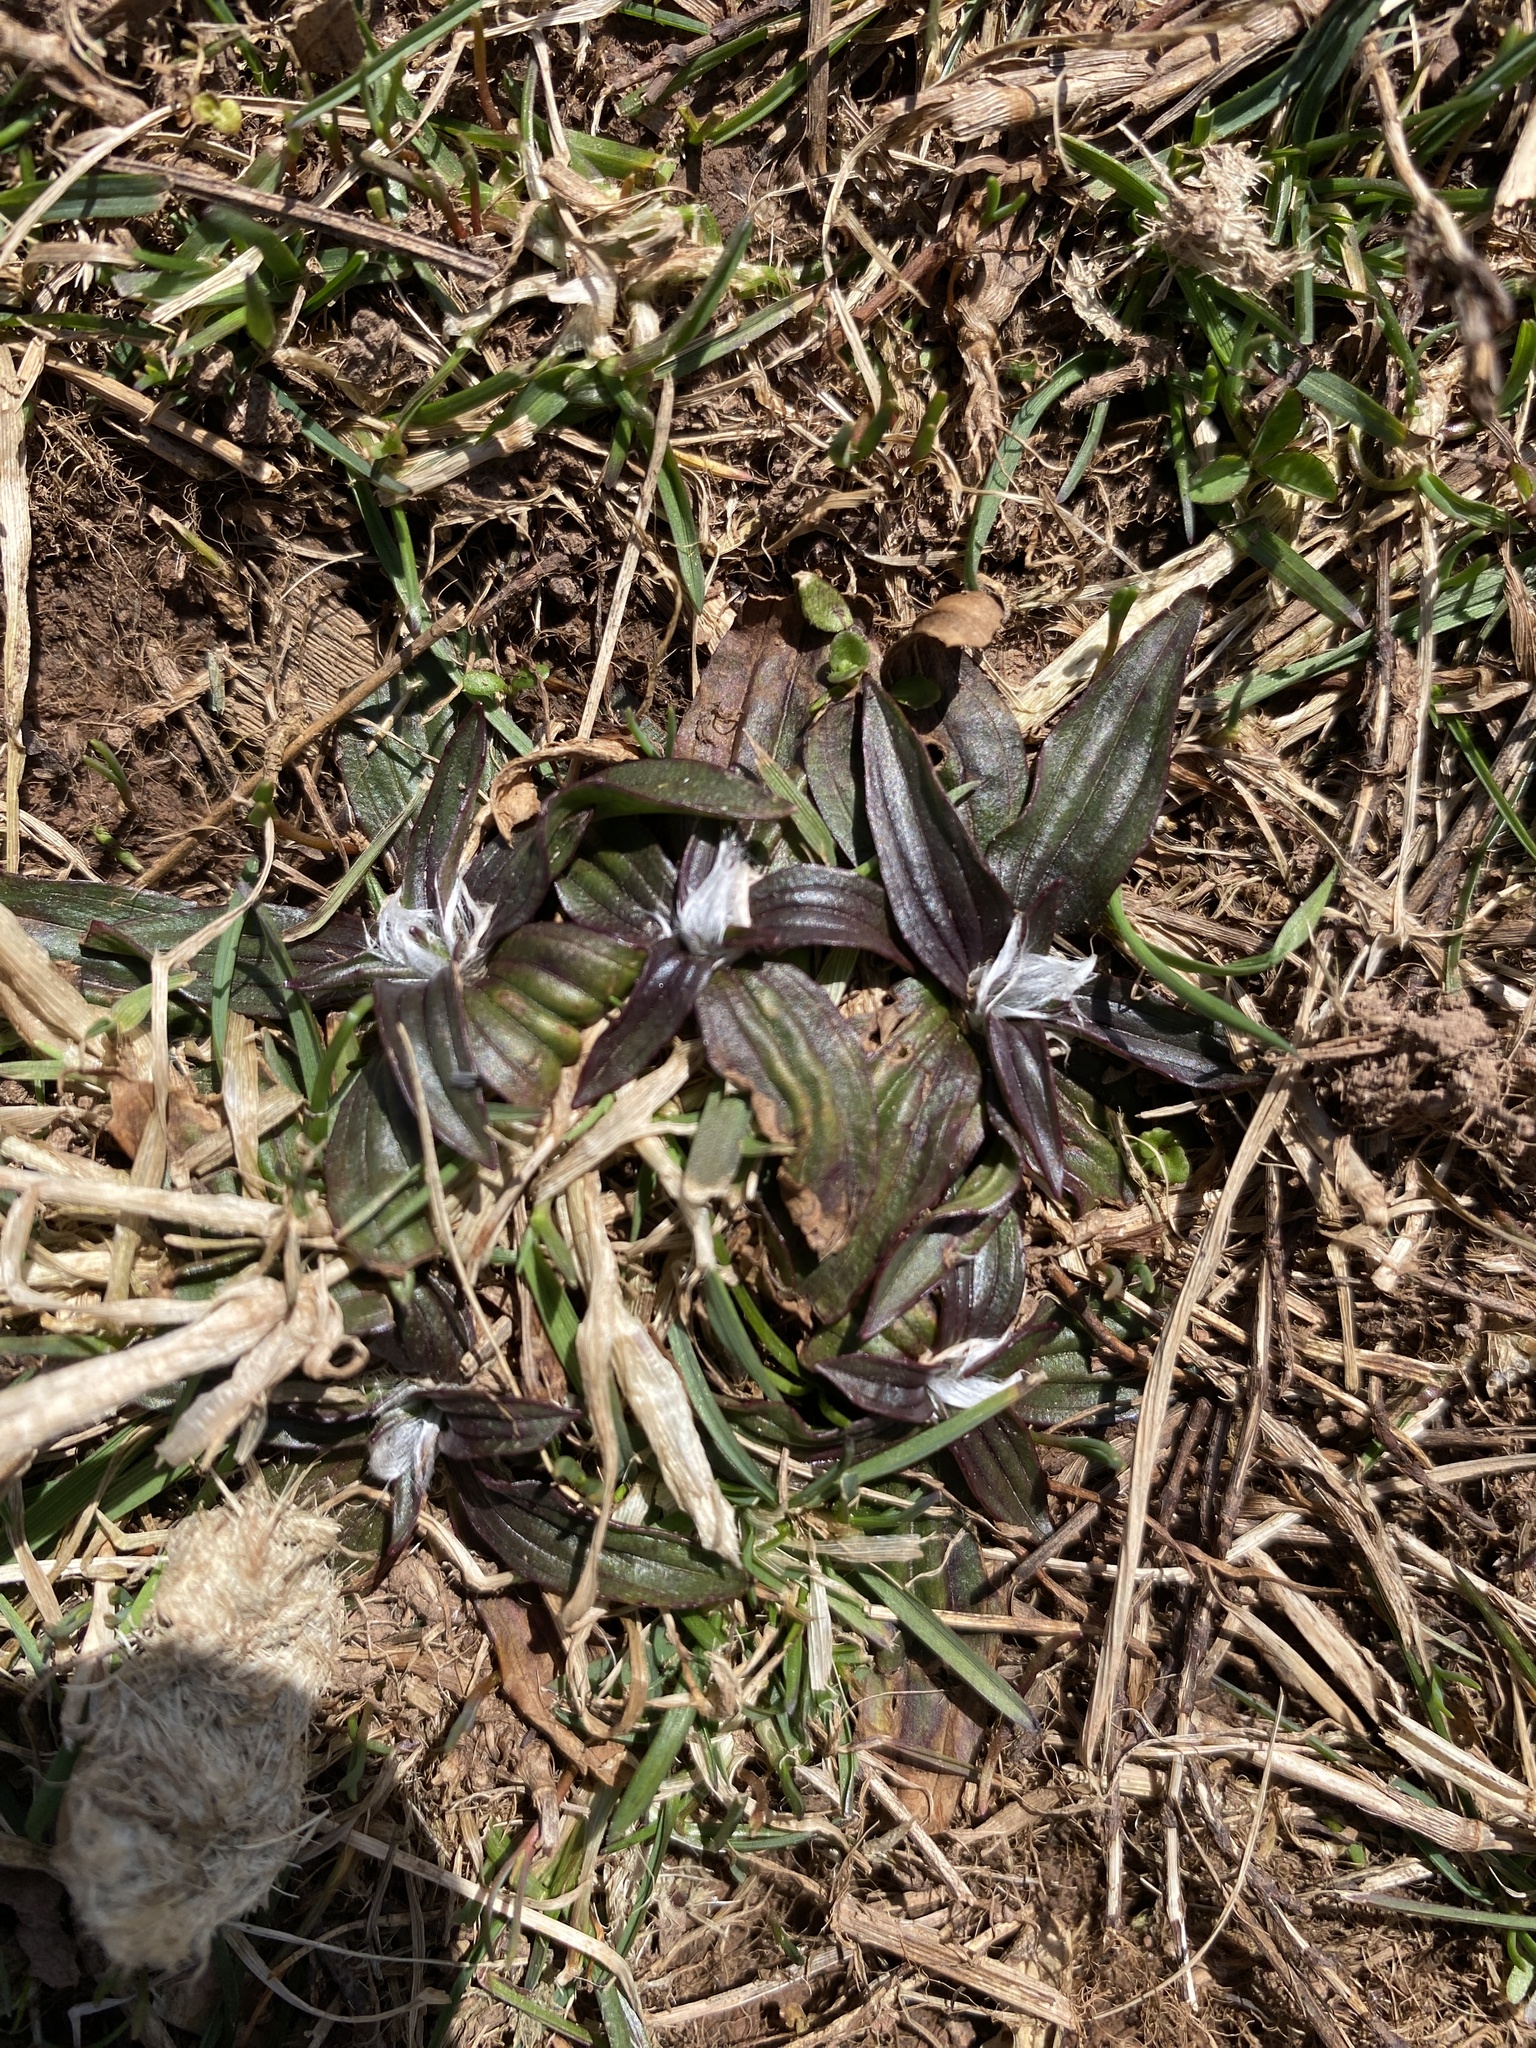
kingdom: Plantae
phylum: Tracheophyta
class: Magnoliopsida
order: Lamiales
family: Plantaginaceae
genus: Plantago
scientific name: Plantago lanceolata
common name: Ribwort plantain
